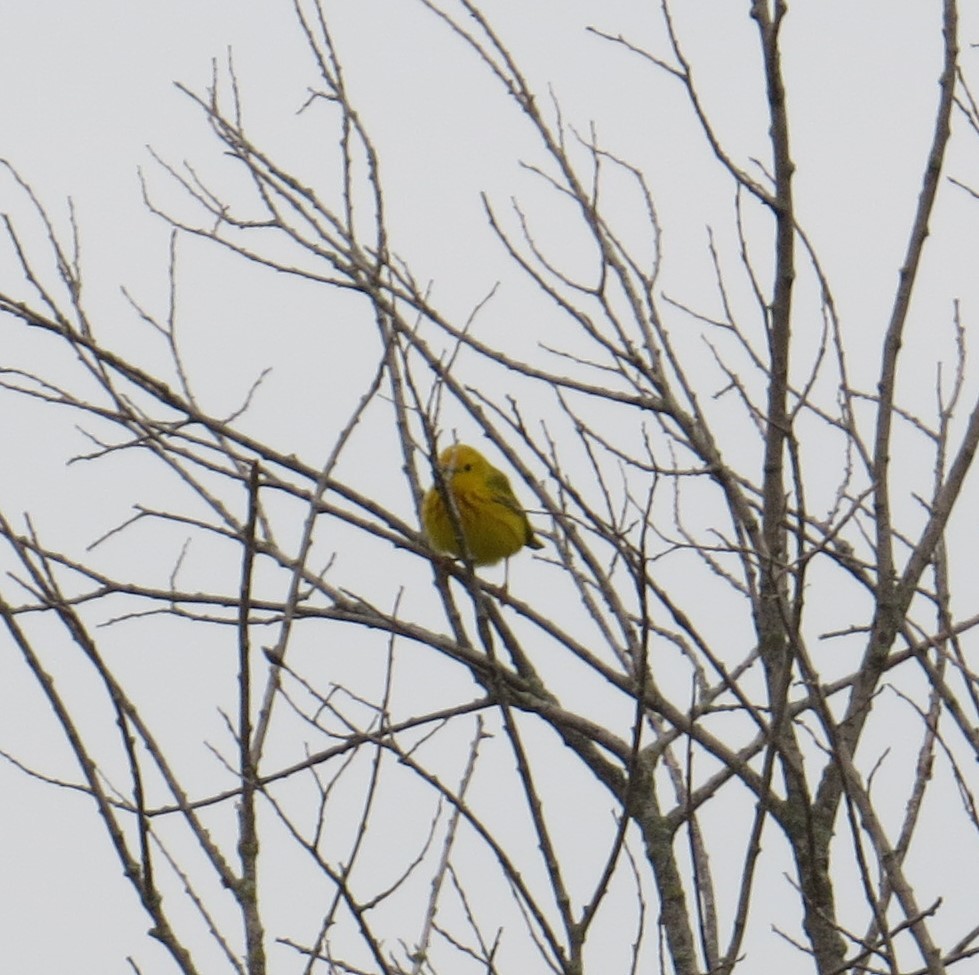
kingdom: Animalia
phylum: Chordata
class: Aves
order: Passeriformes
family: Parulidae
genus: Setophaga
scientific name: Setophaga petechia
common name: Yellow warbler
